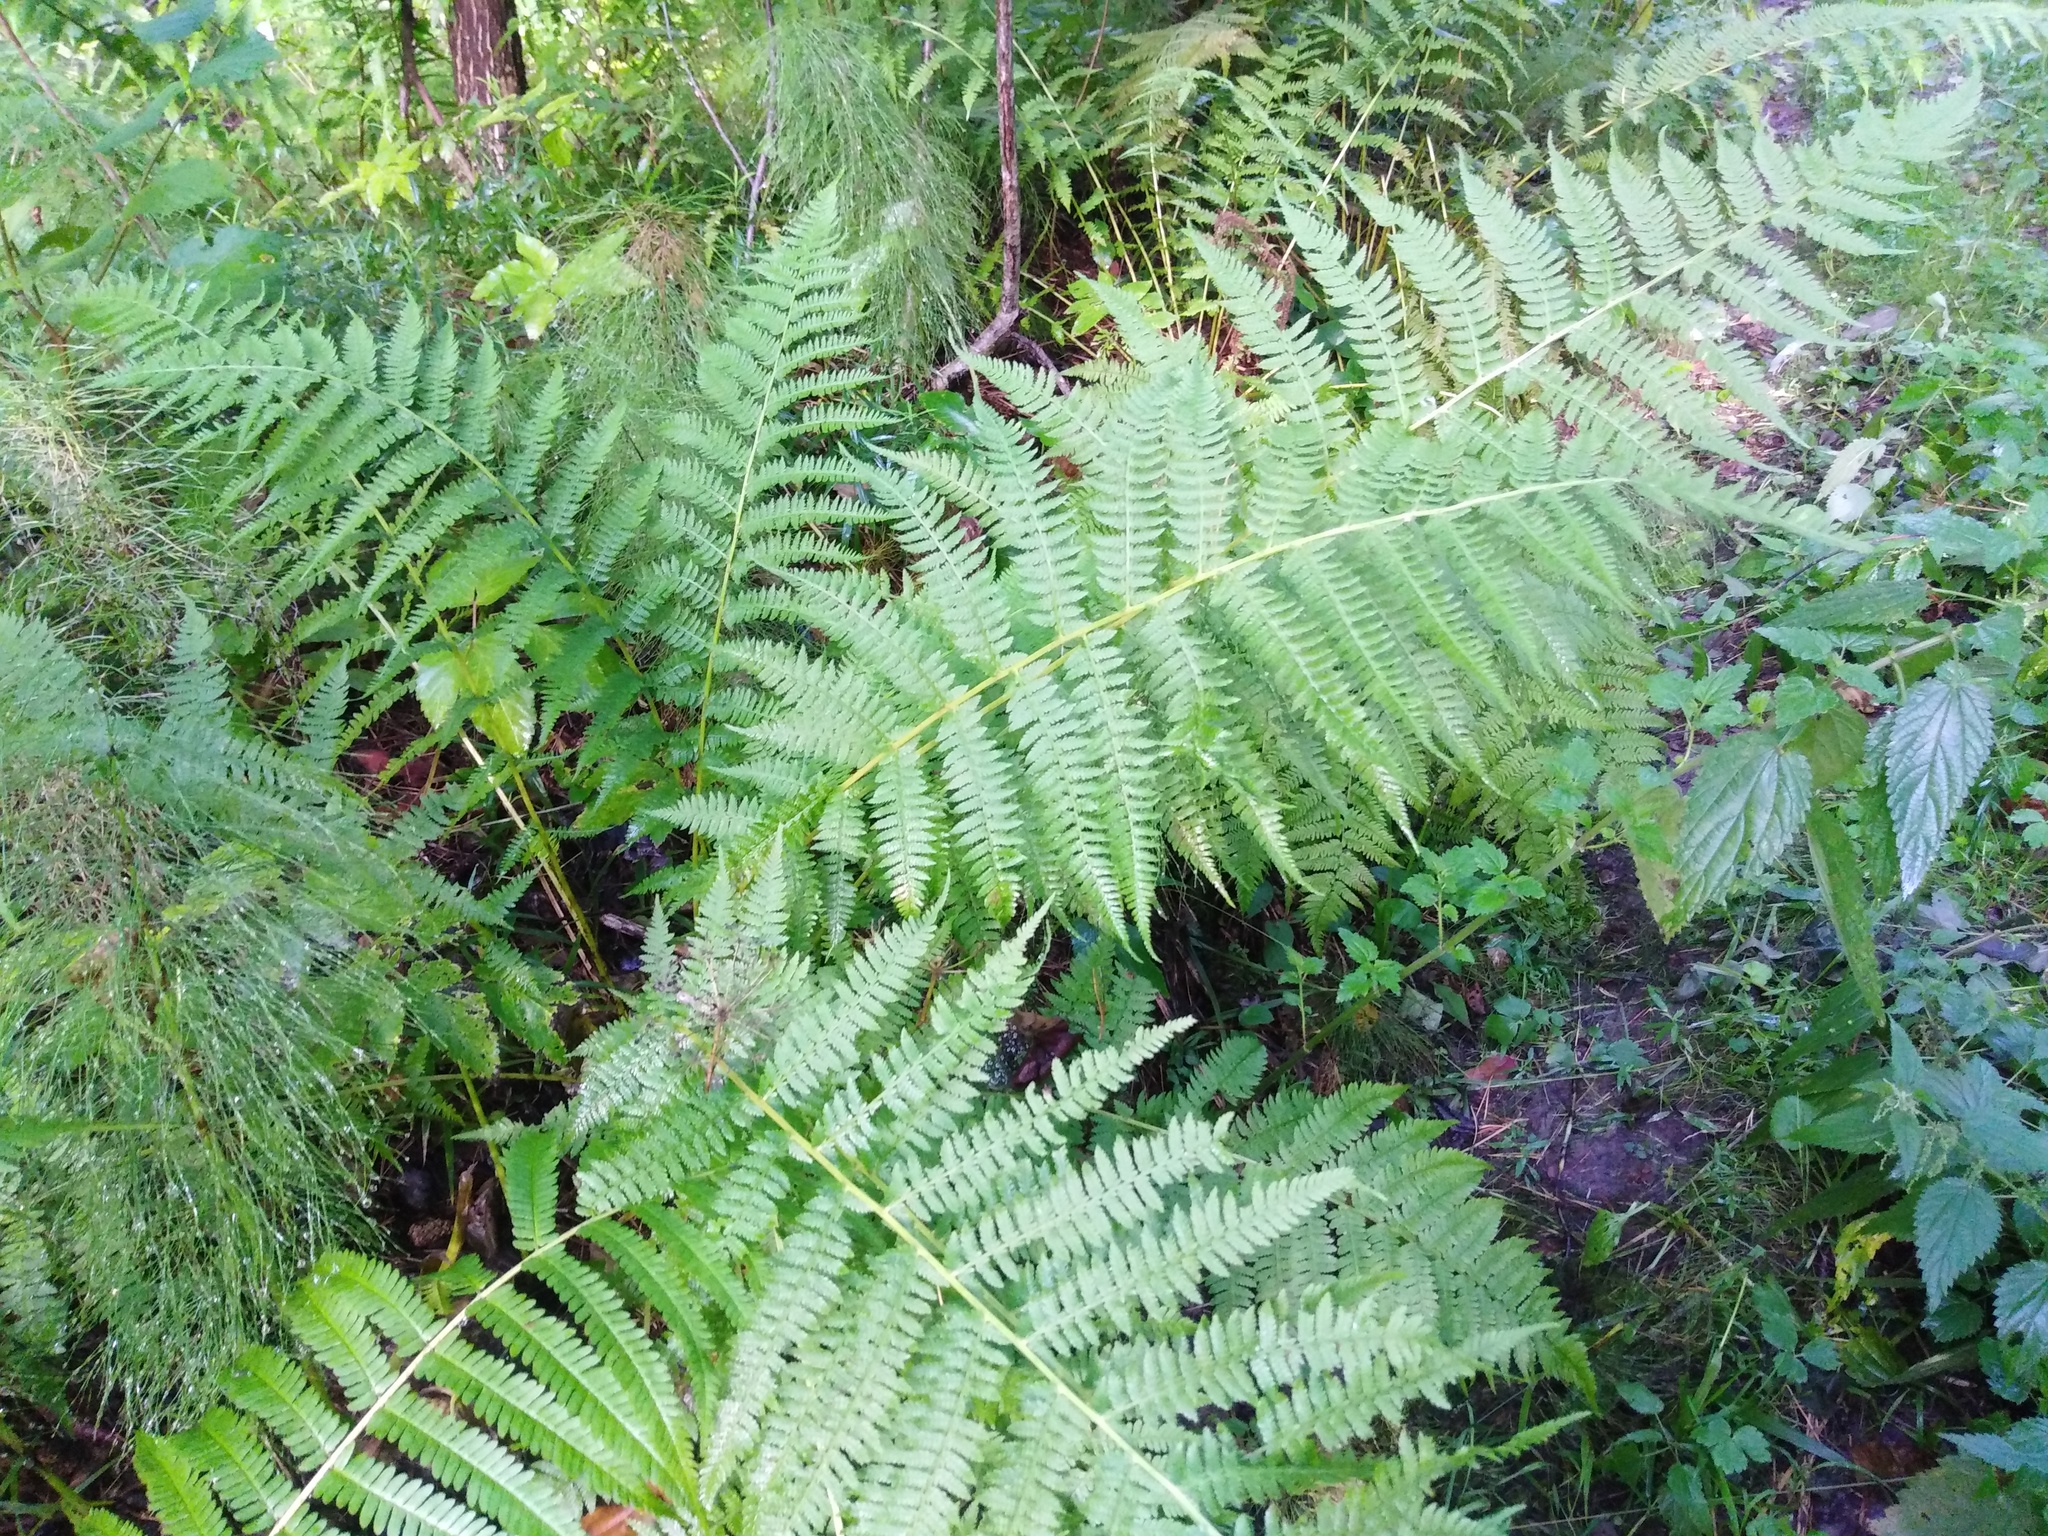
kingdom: Plantae
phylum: Tracheophyta
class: Polypodiopsida
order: Polypodiales
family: Athyriaceae
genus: Athyrium
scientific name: Athyrium filix-femina
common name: Lady fern
